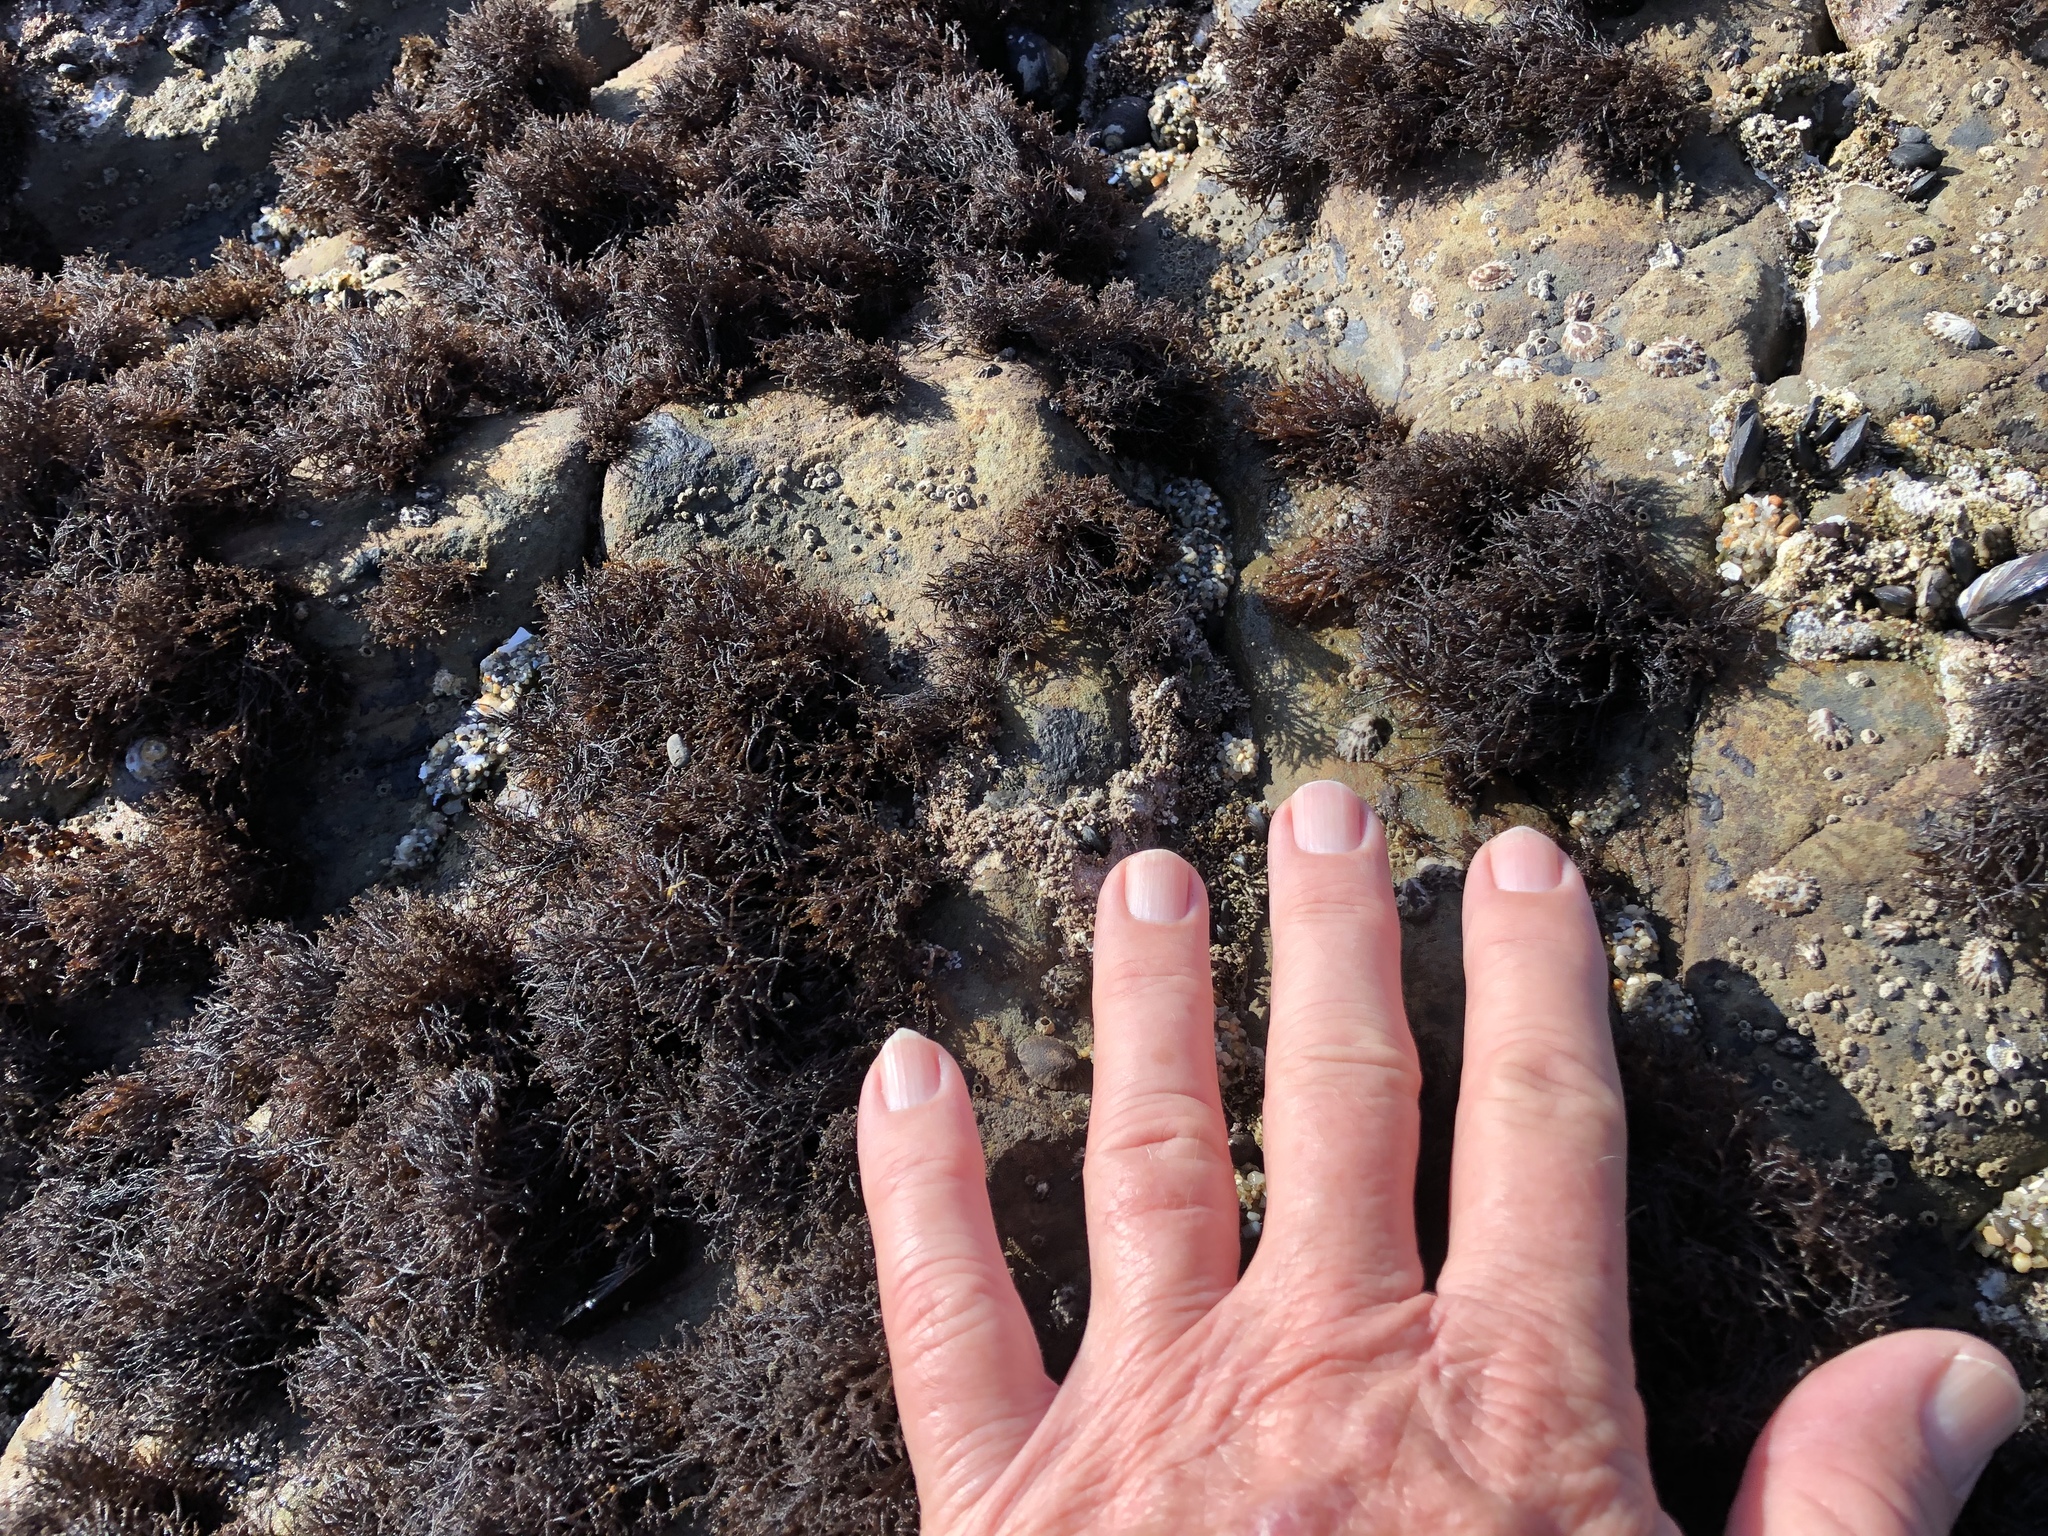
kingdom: Plantae
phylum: Rhodophyta
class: Florideophyceae
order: Gigartinales
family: Endocladiaceae
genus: Endocladia
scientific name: Endocladia muricata
